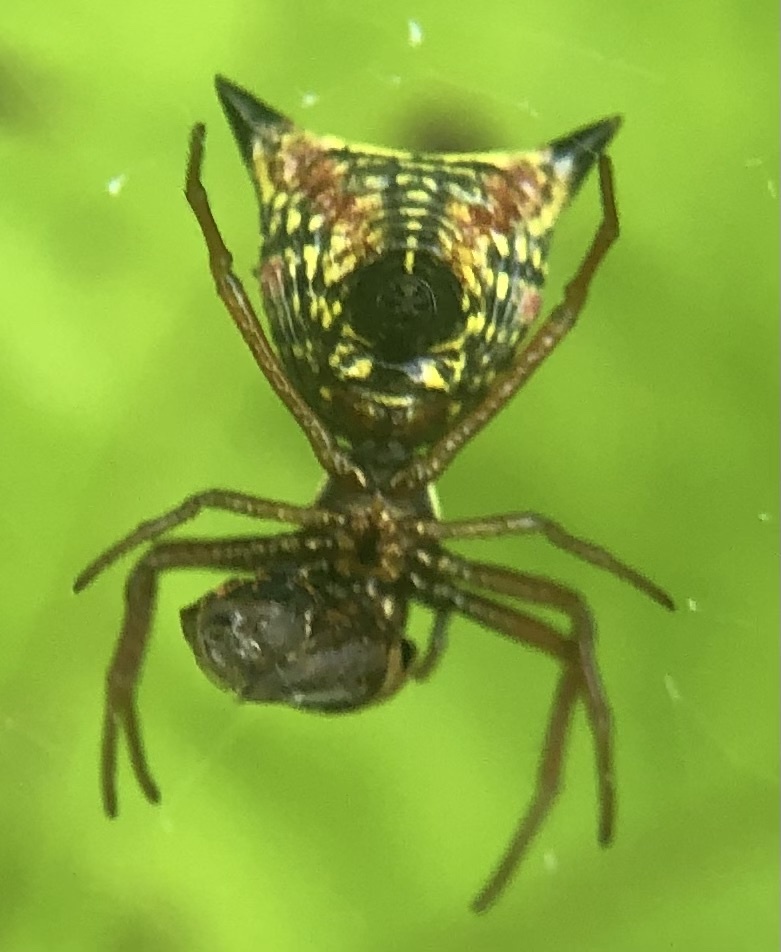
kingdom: Animalia
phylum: Arthropoda
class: Arachnida
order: Araneae
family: Araneidae
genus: Micrathena
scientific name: Micrathena sagittata
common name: Orb weavers
